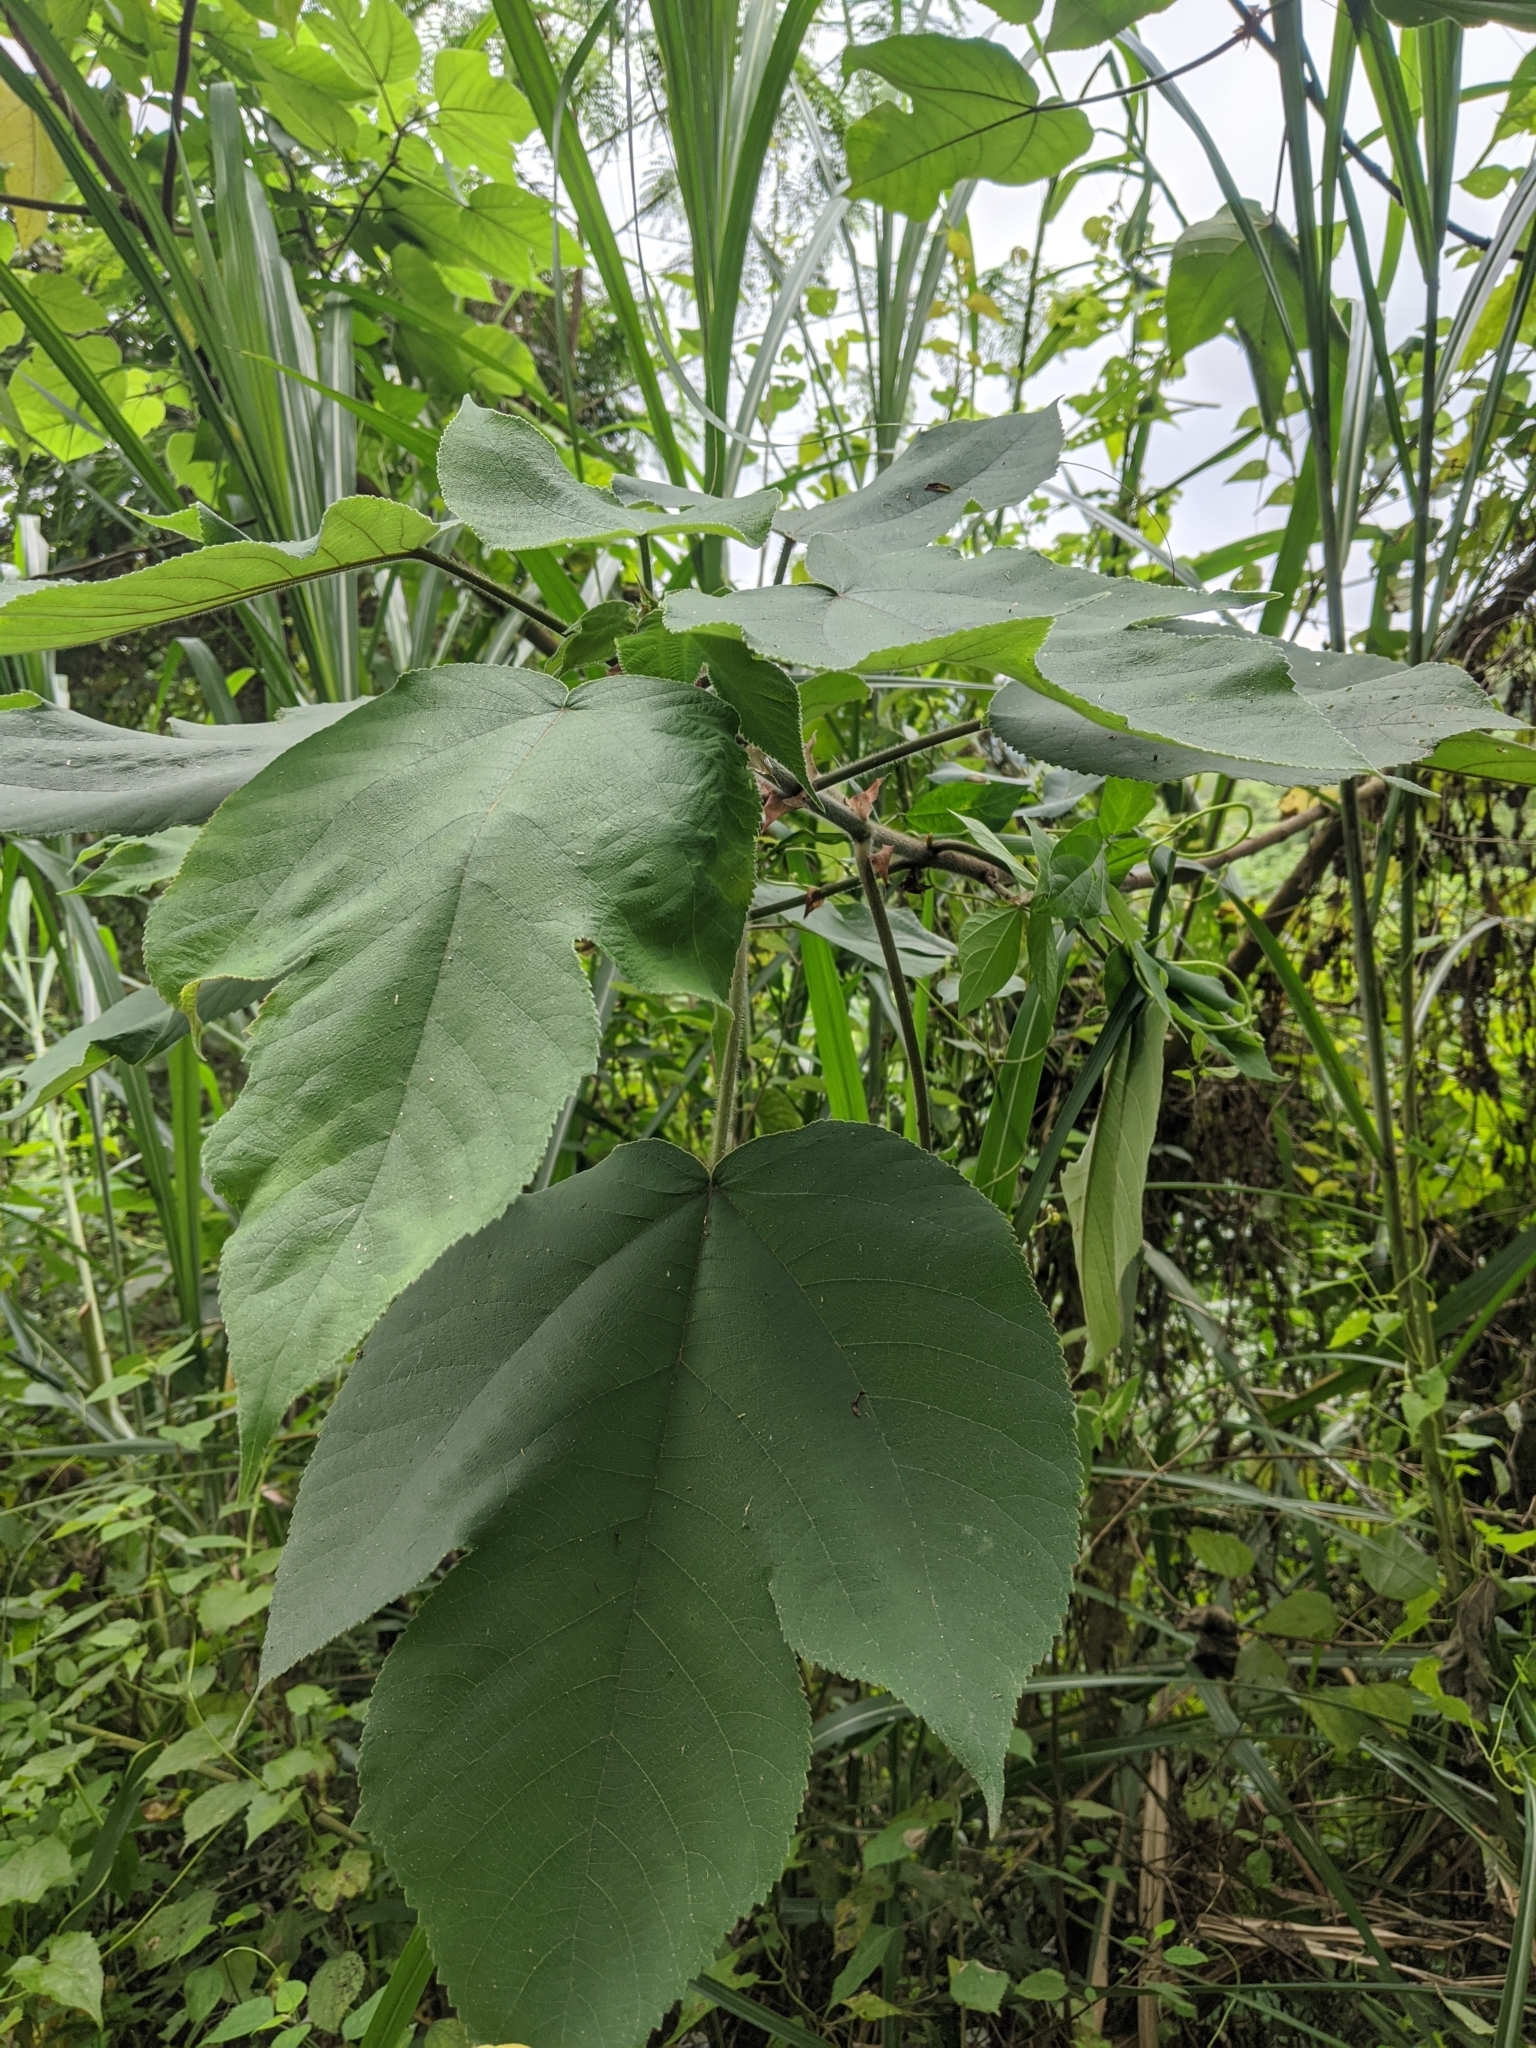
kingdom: Plantae
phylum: Tracheophyta
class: Magnoliopsida
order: Rosales
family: Moraceae
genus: Broussonetia
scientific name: Broussonetia papyrifera
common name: Paper mulberry
